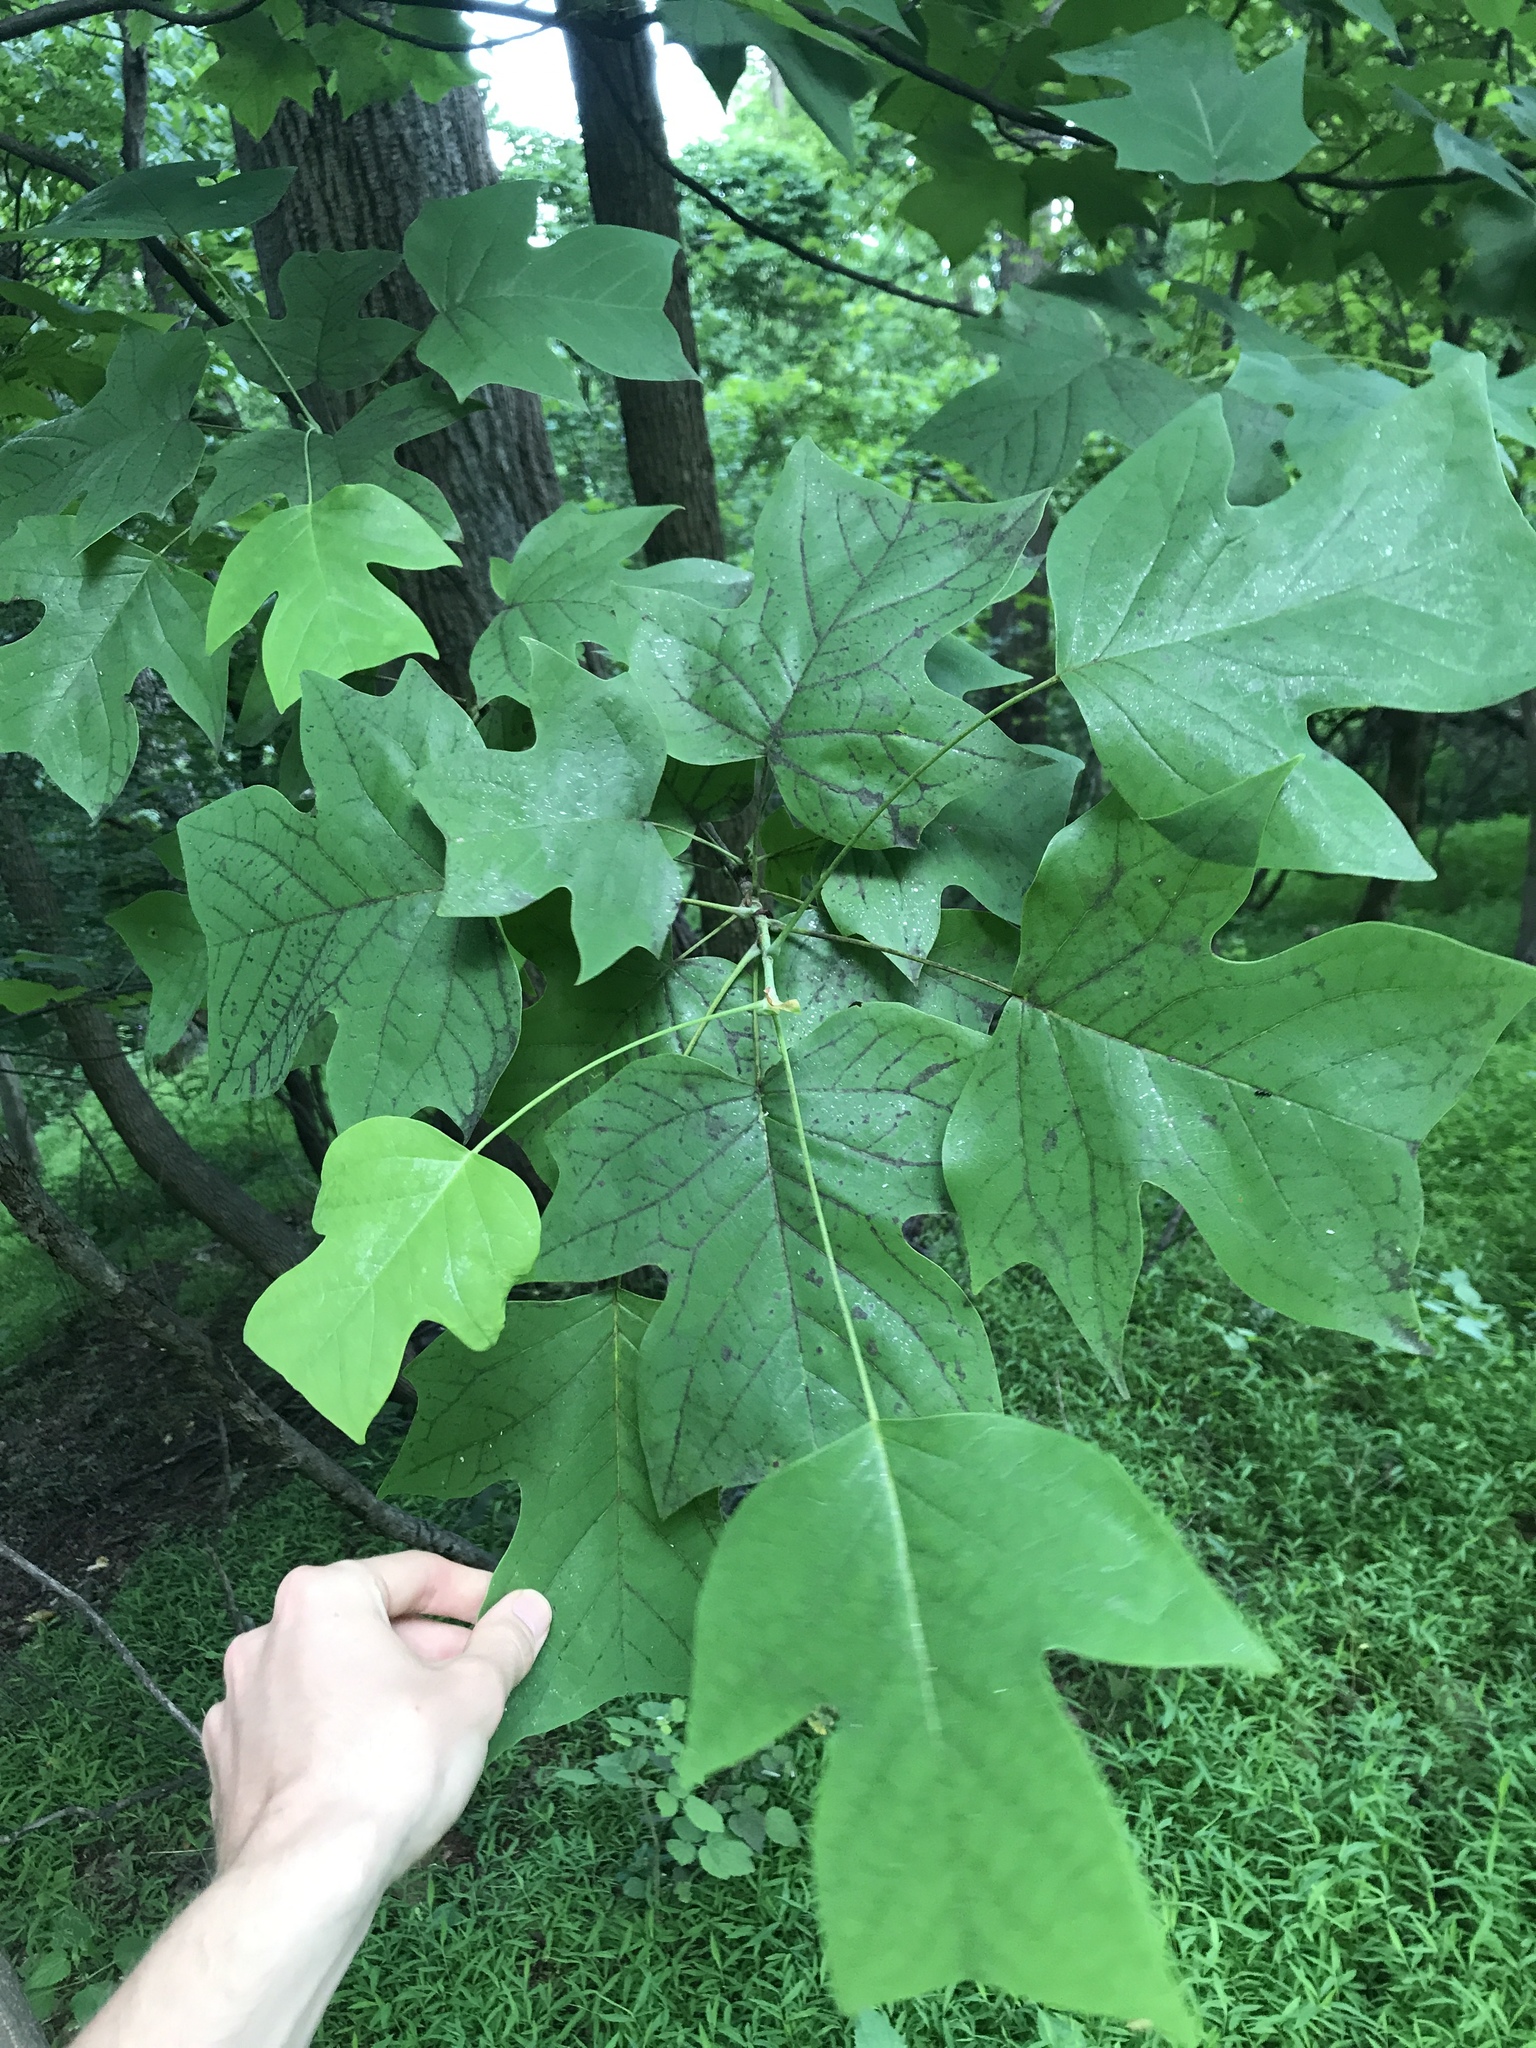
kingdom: Plantae
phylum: Tracheophyta
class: Magnoliopsida
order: Magnoliales
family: Magnoliaceae
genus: Liriodendron
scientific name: Liriodendron tulipifera
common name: Tulip tree
